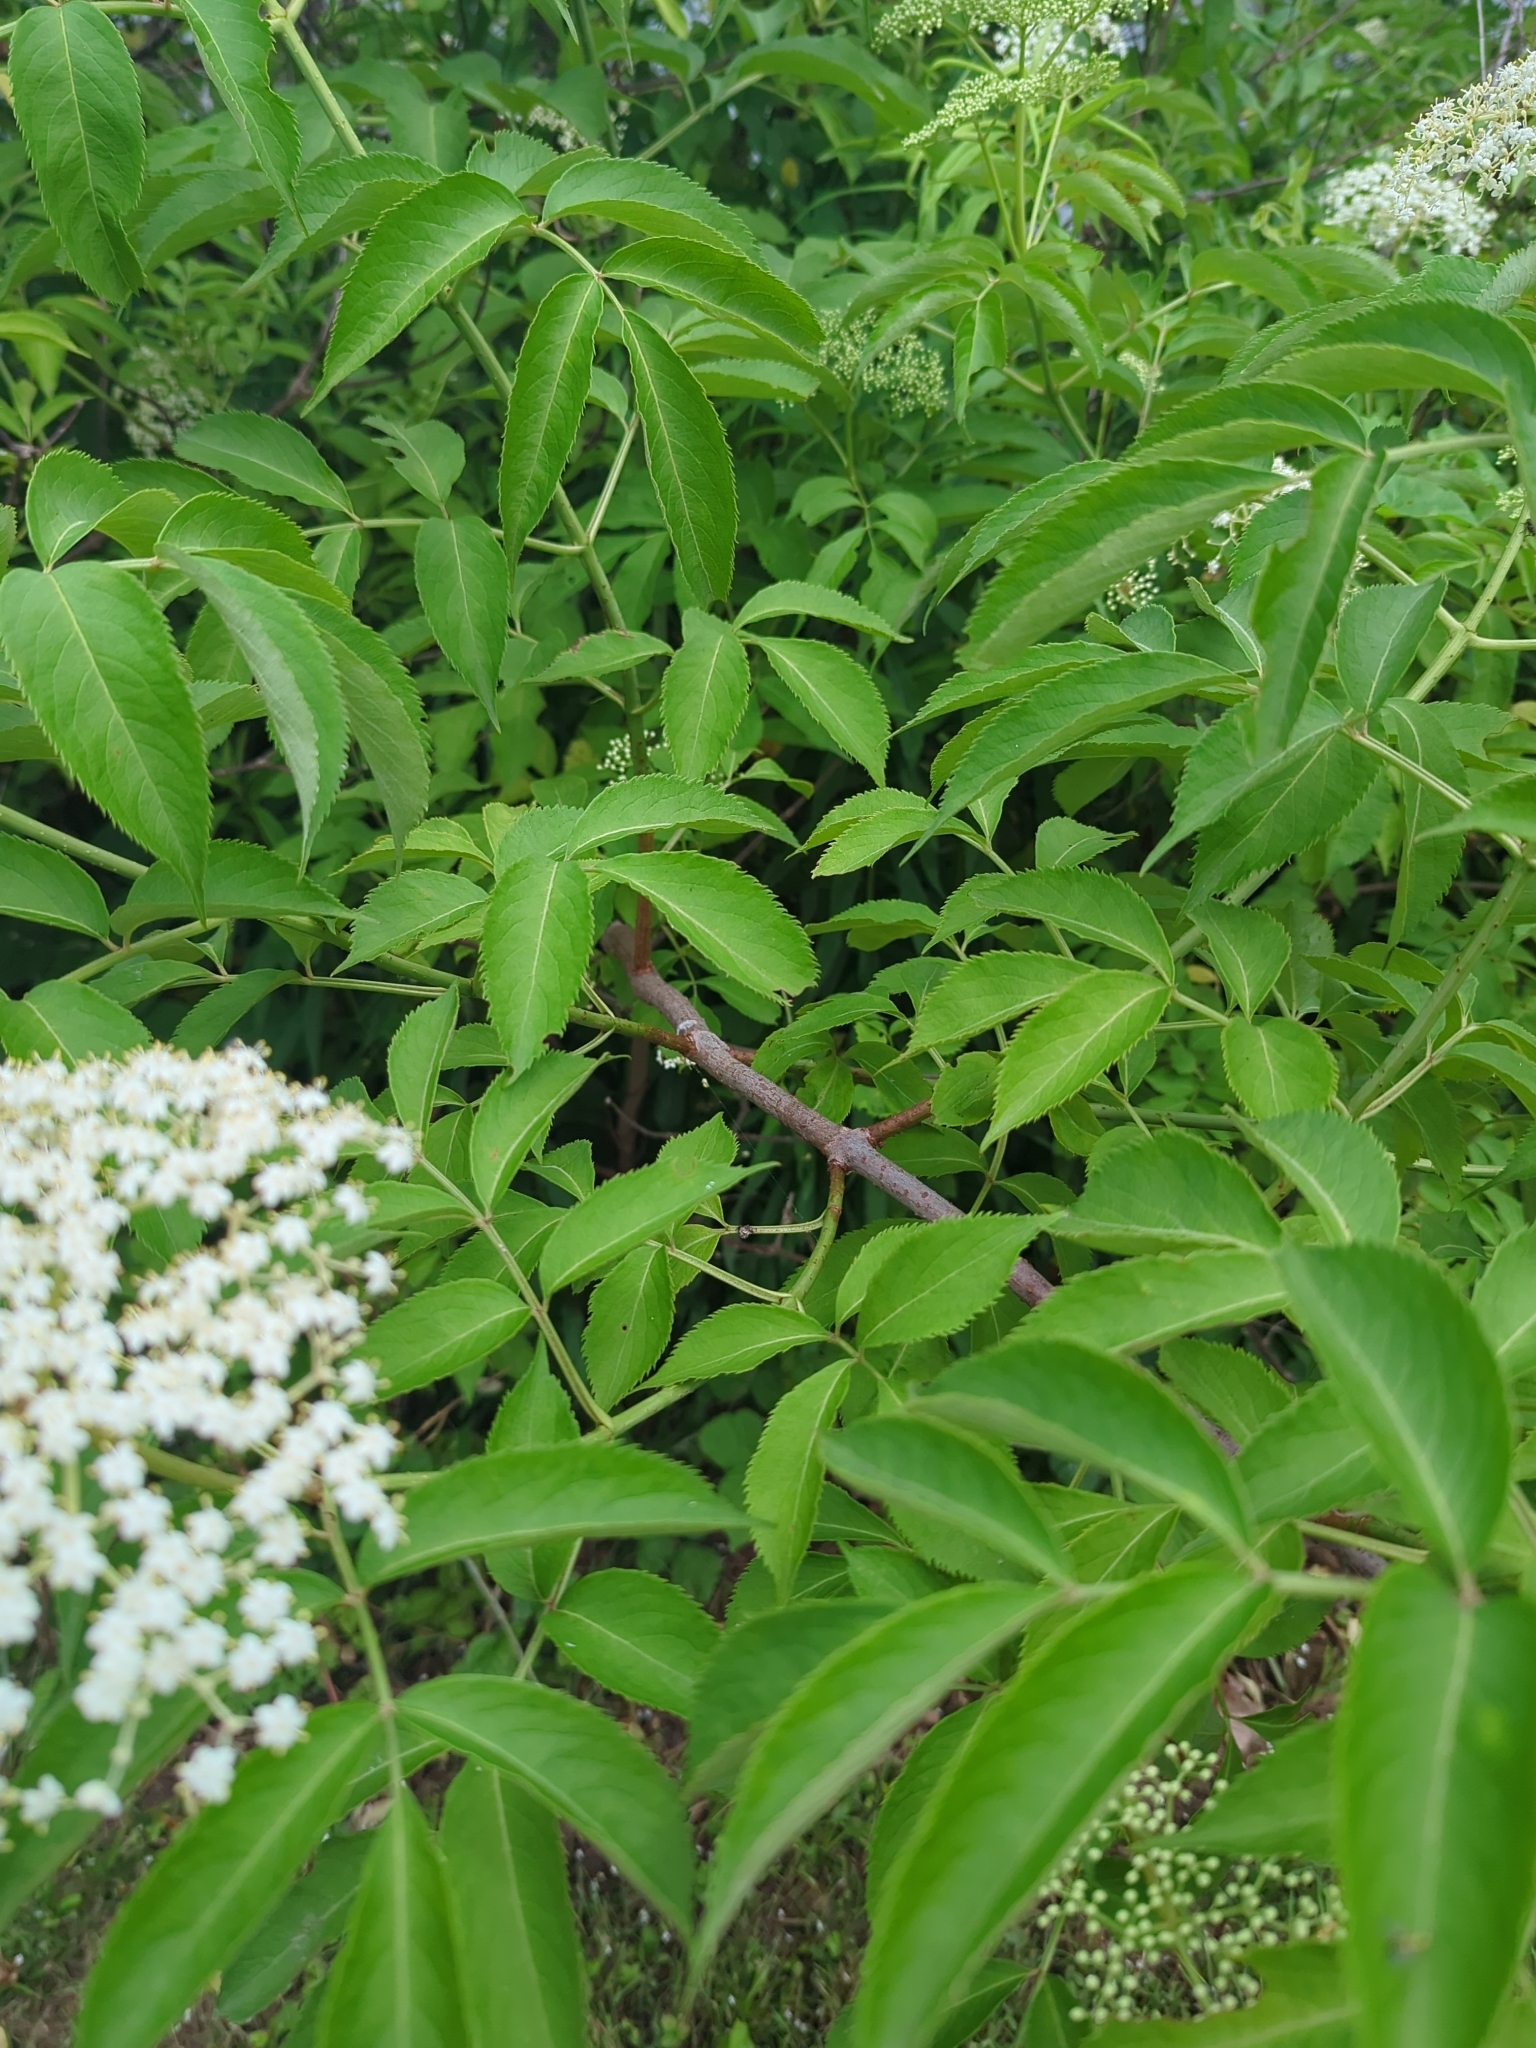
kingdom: Plantae
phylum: Tracheophyta
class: Magnoliopsida
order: Dipsacales
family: Viburnaceae
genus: Sambucus
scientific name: Sambucus canadensis
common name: American elder
